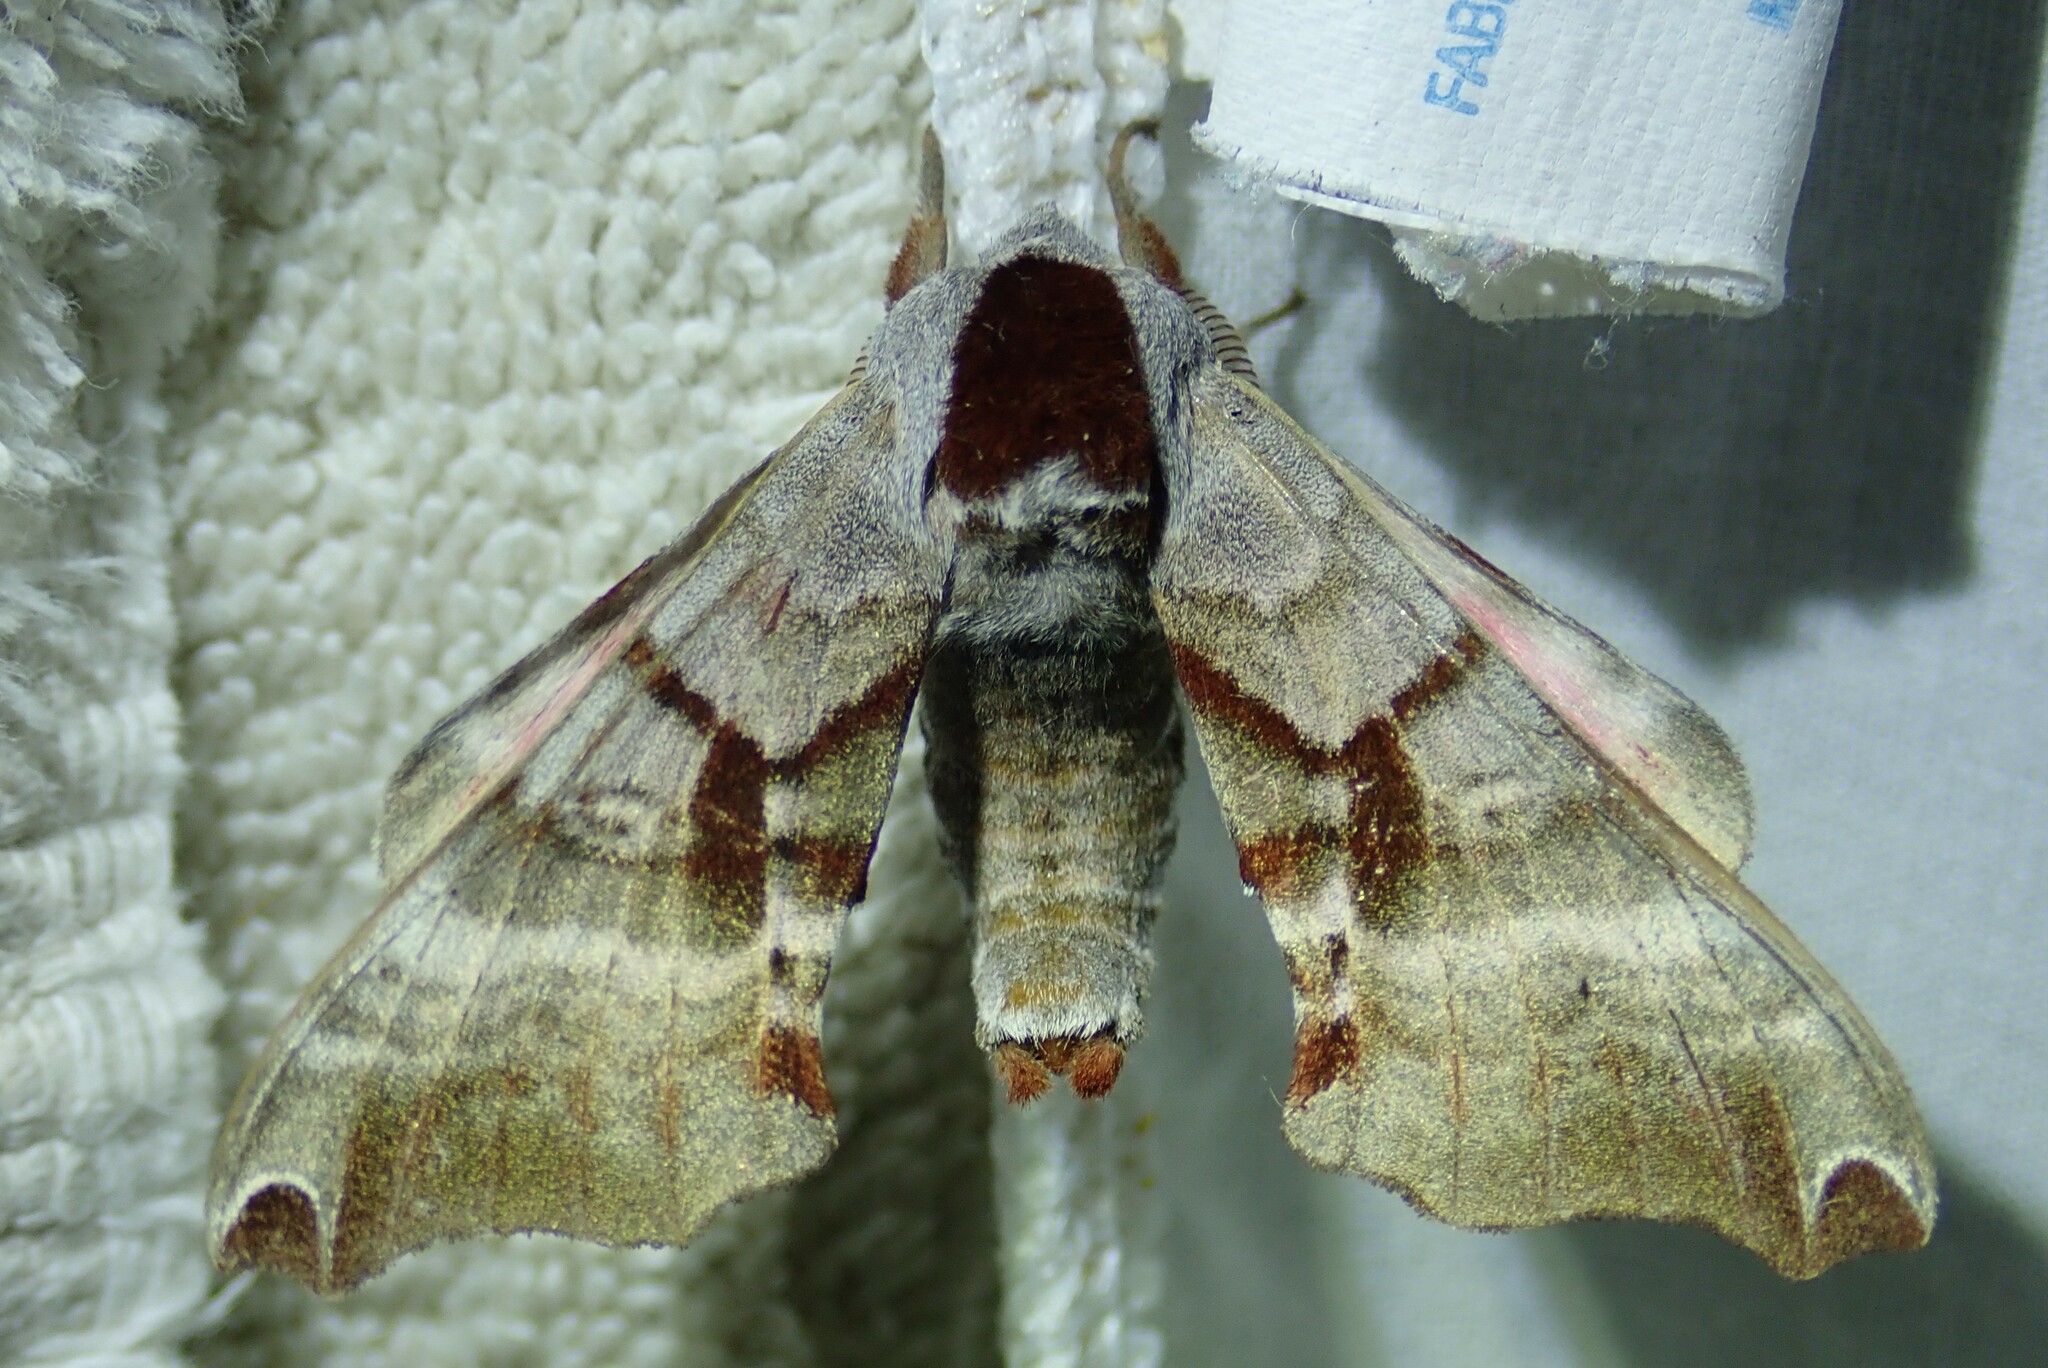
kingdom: Animalia
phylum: Arthropoda
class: Insecta
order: Lepidoptera
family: Sphingidae
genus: Smerinthus
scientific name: Smerinthus jamaicensis
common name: Twin spotted sphinx
